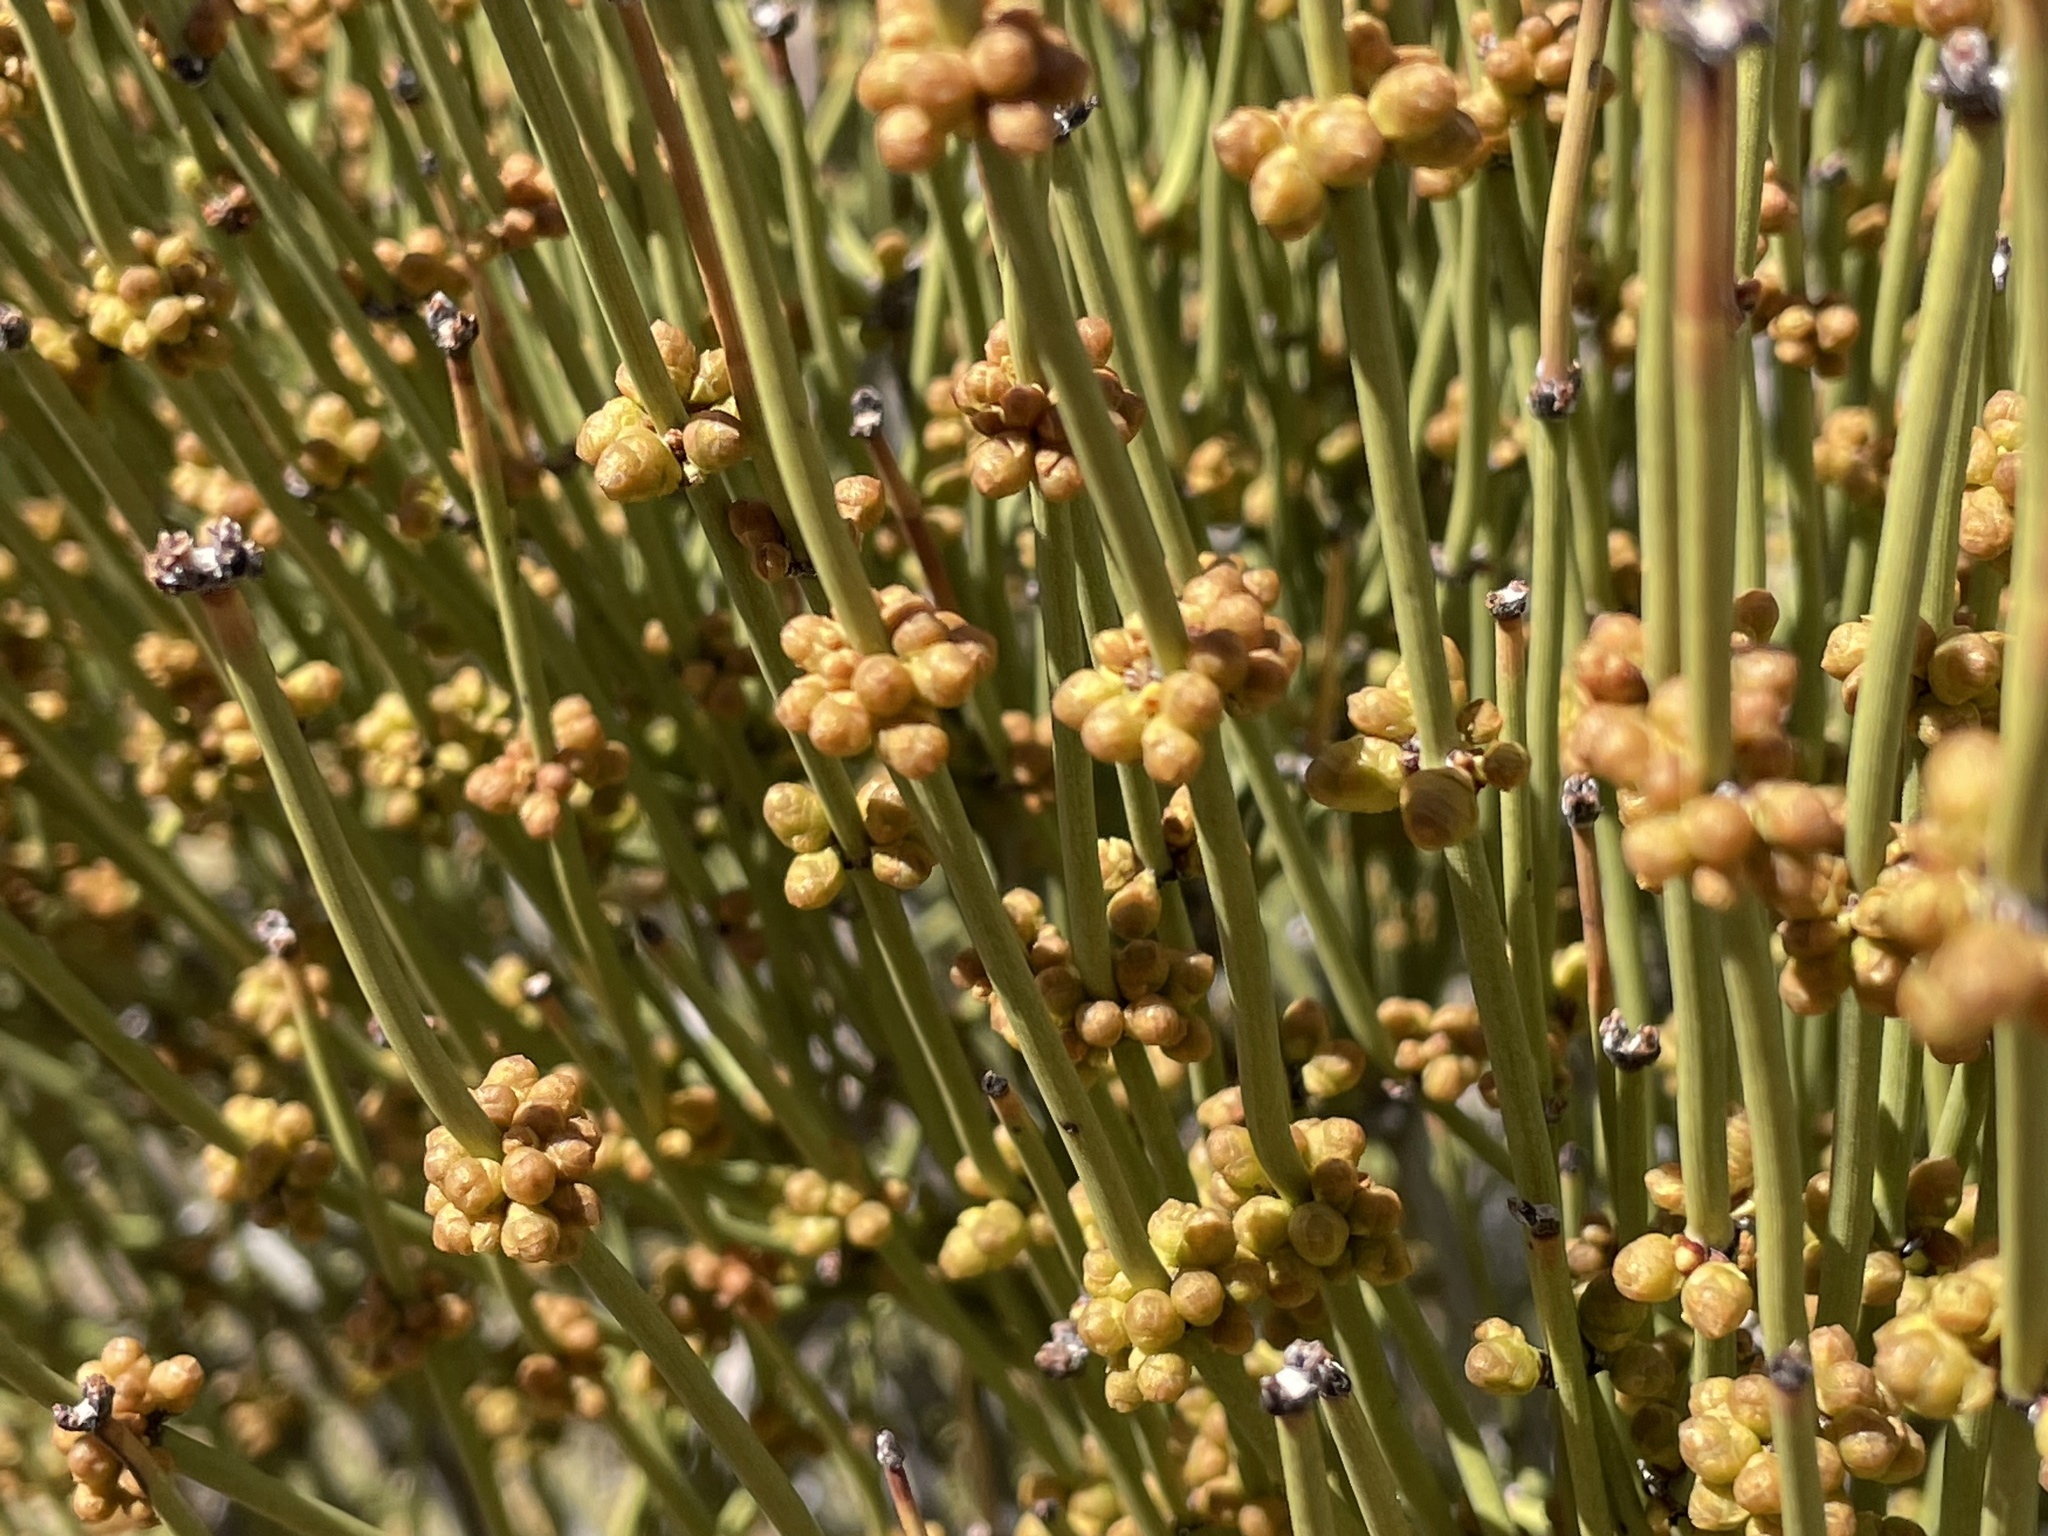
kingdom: Plantae
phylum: Tracheophyta
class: Gnetopsida
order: Ephedrales
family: Ephedraceae
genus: Ephedra
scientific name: Ephedra viridis
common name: Green ephedra
